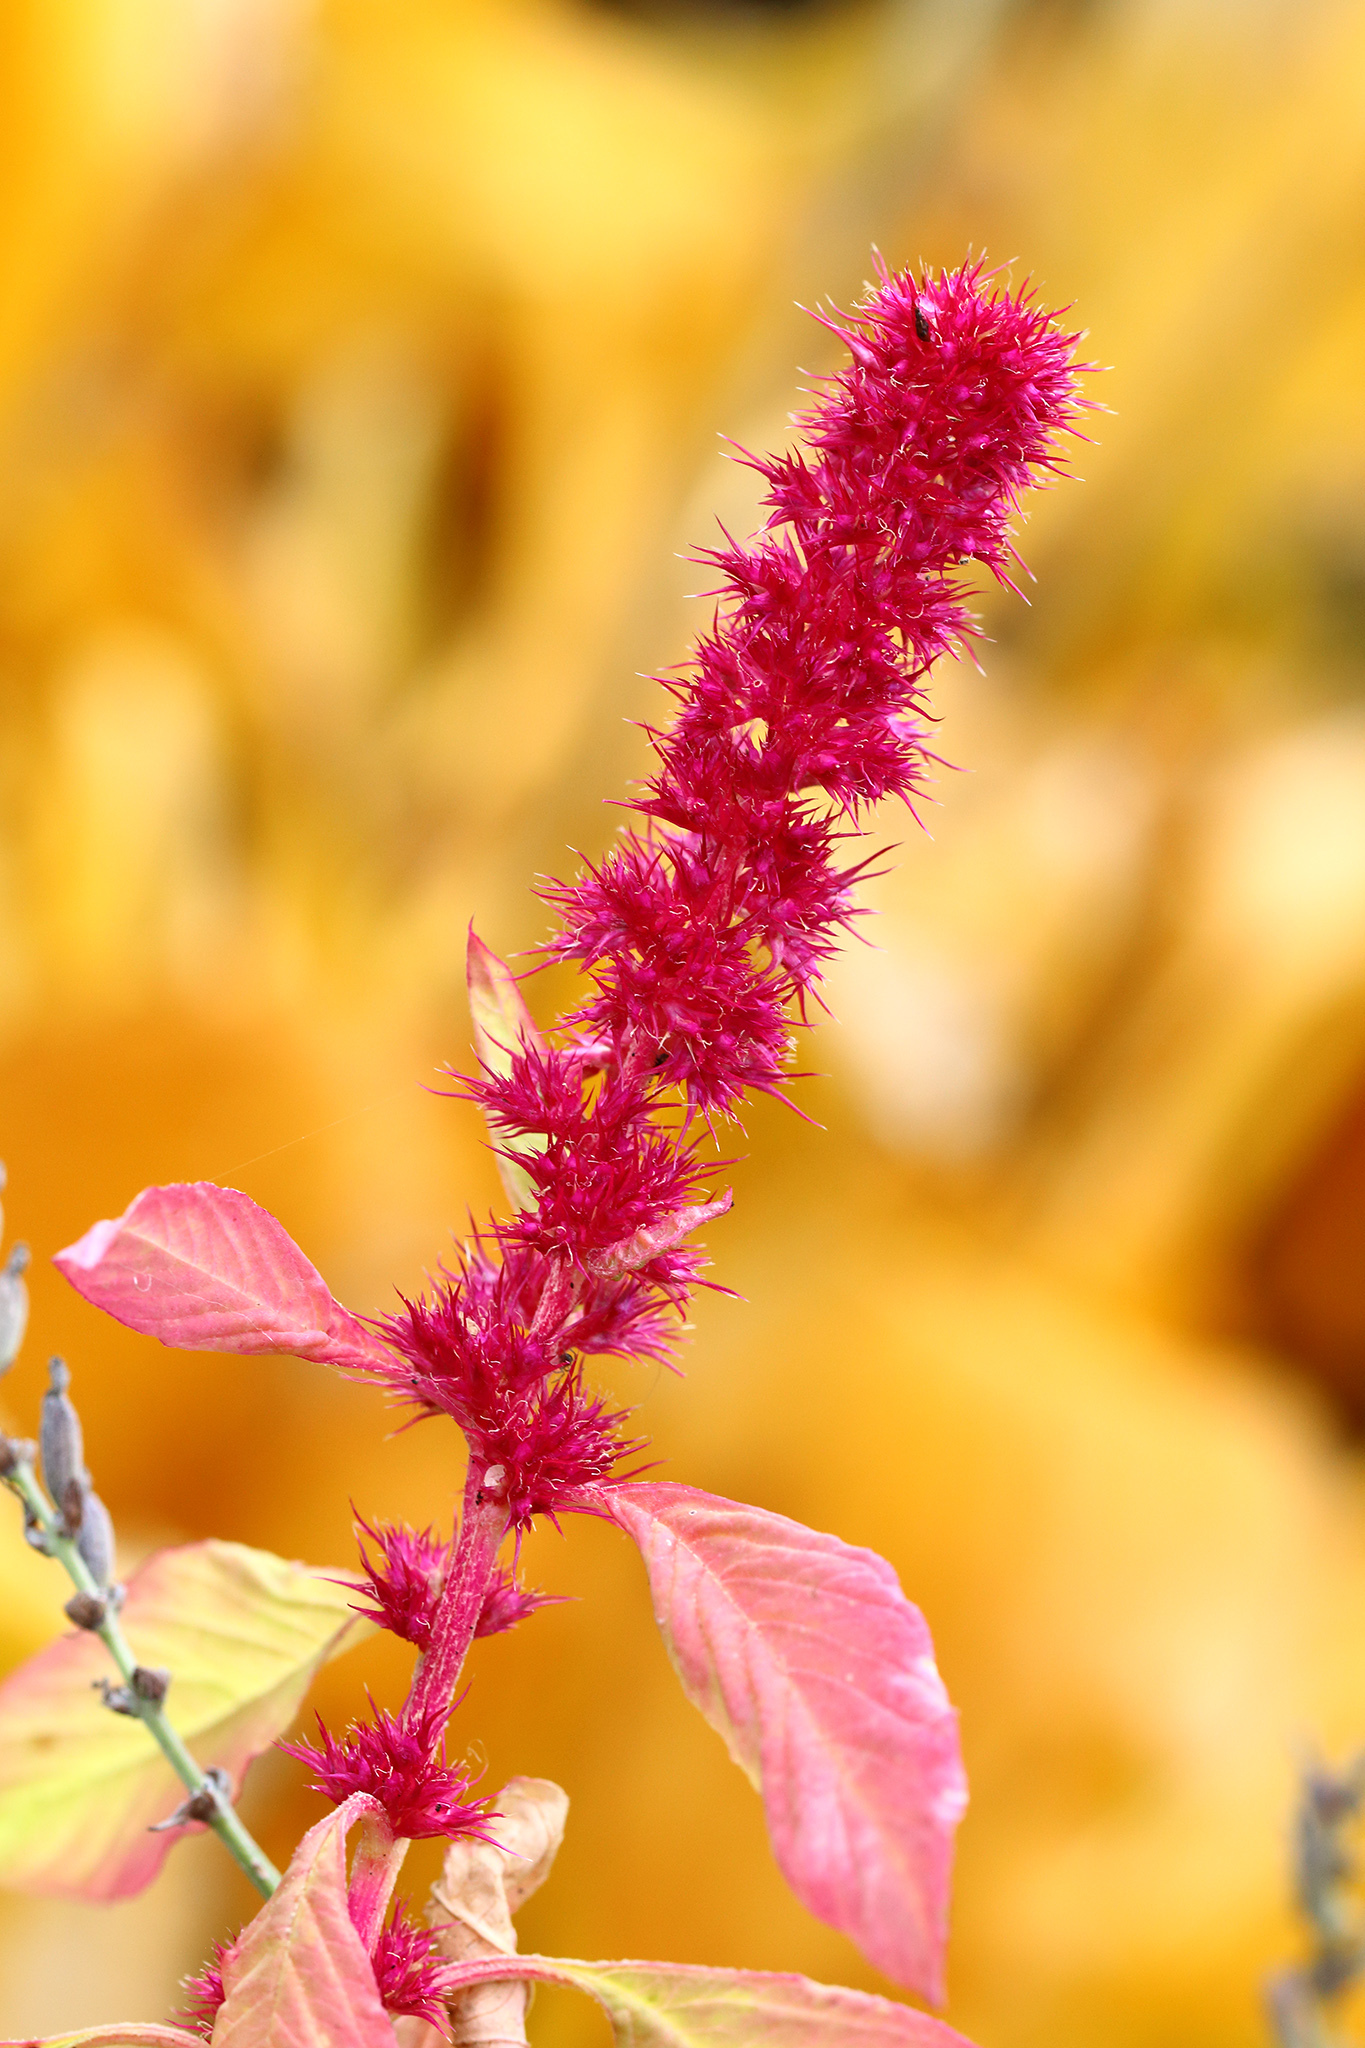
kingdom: Plantae
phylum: Tracheophyta
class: Magnoliopsida
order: Caryophyllales
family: Amaranthaceae
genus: Amaranthus
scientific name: Amaranthus cruentus
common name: Purple amaranth
